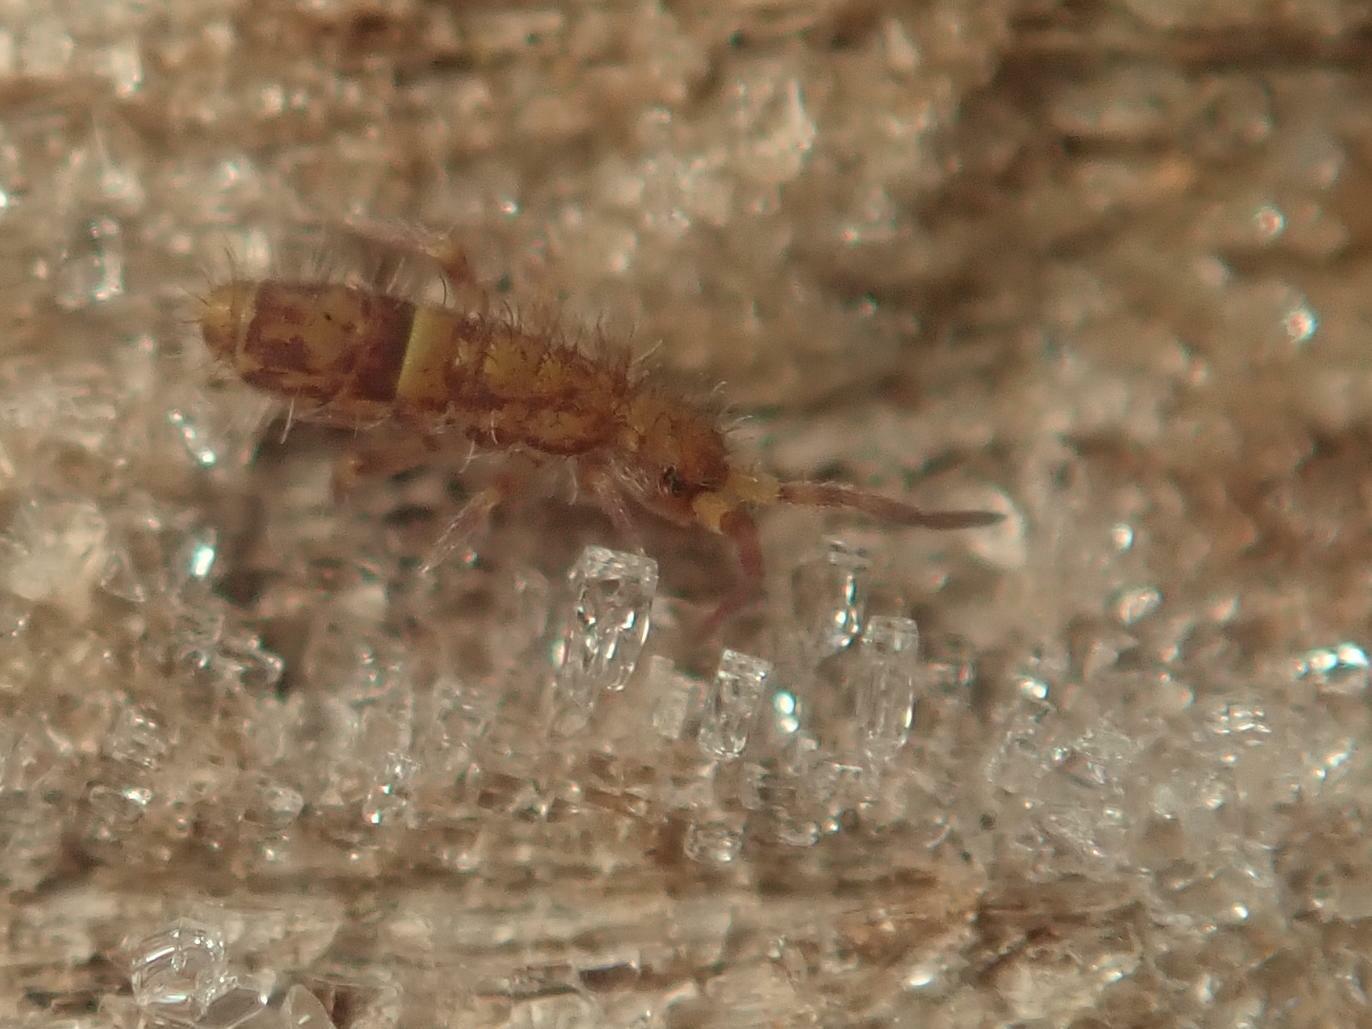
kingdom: Animalia
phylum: Arthropoda
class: Collembola
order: Entomobryomorpha
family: Orchesellidae
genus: Orchesella
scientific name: Orchesella cincta
